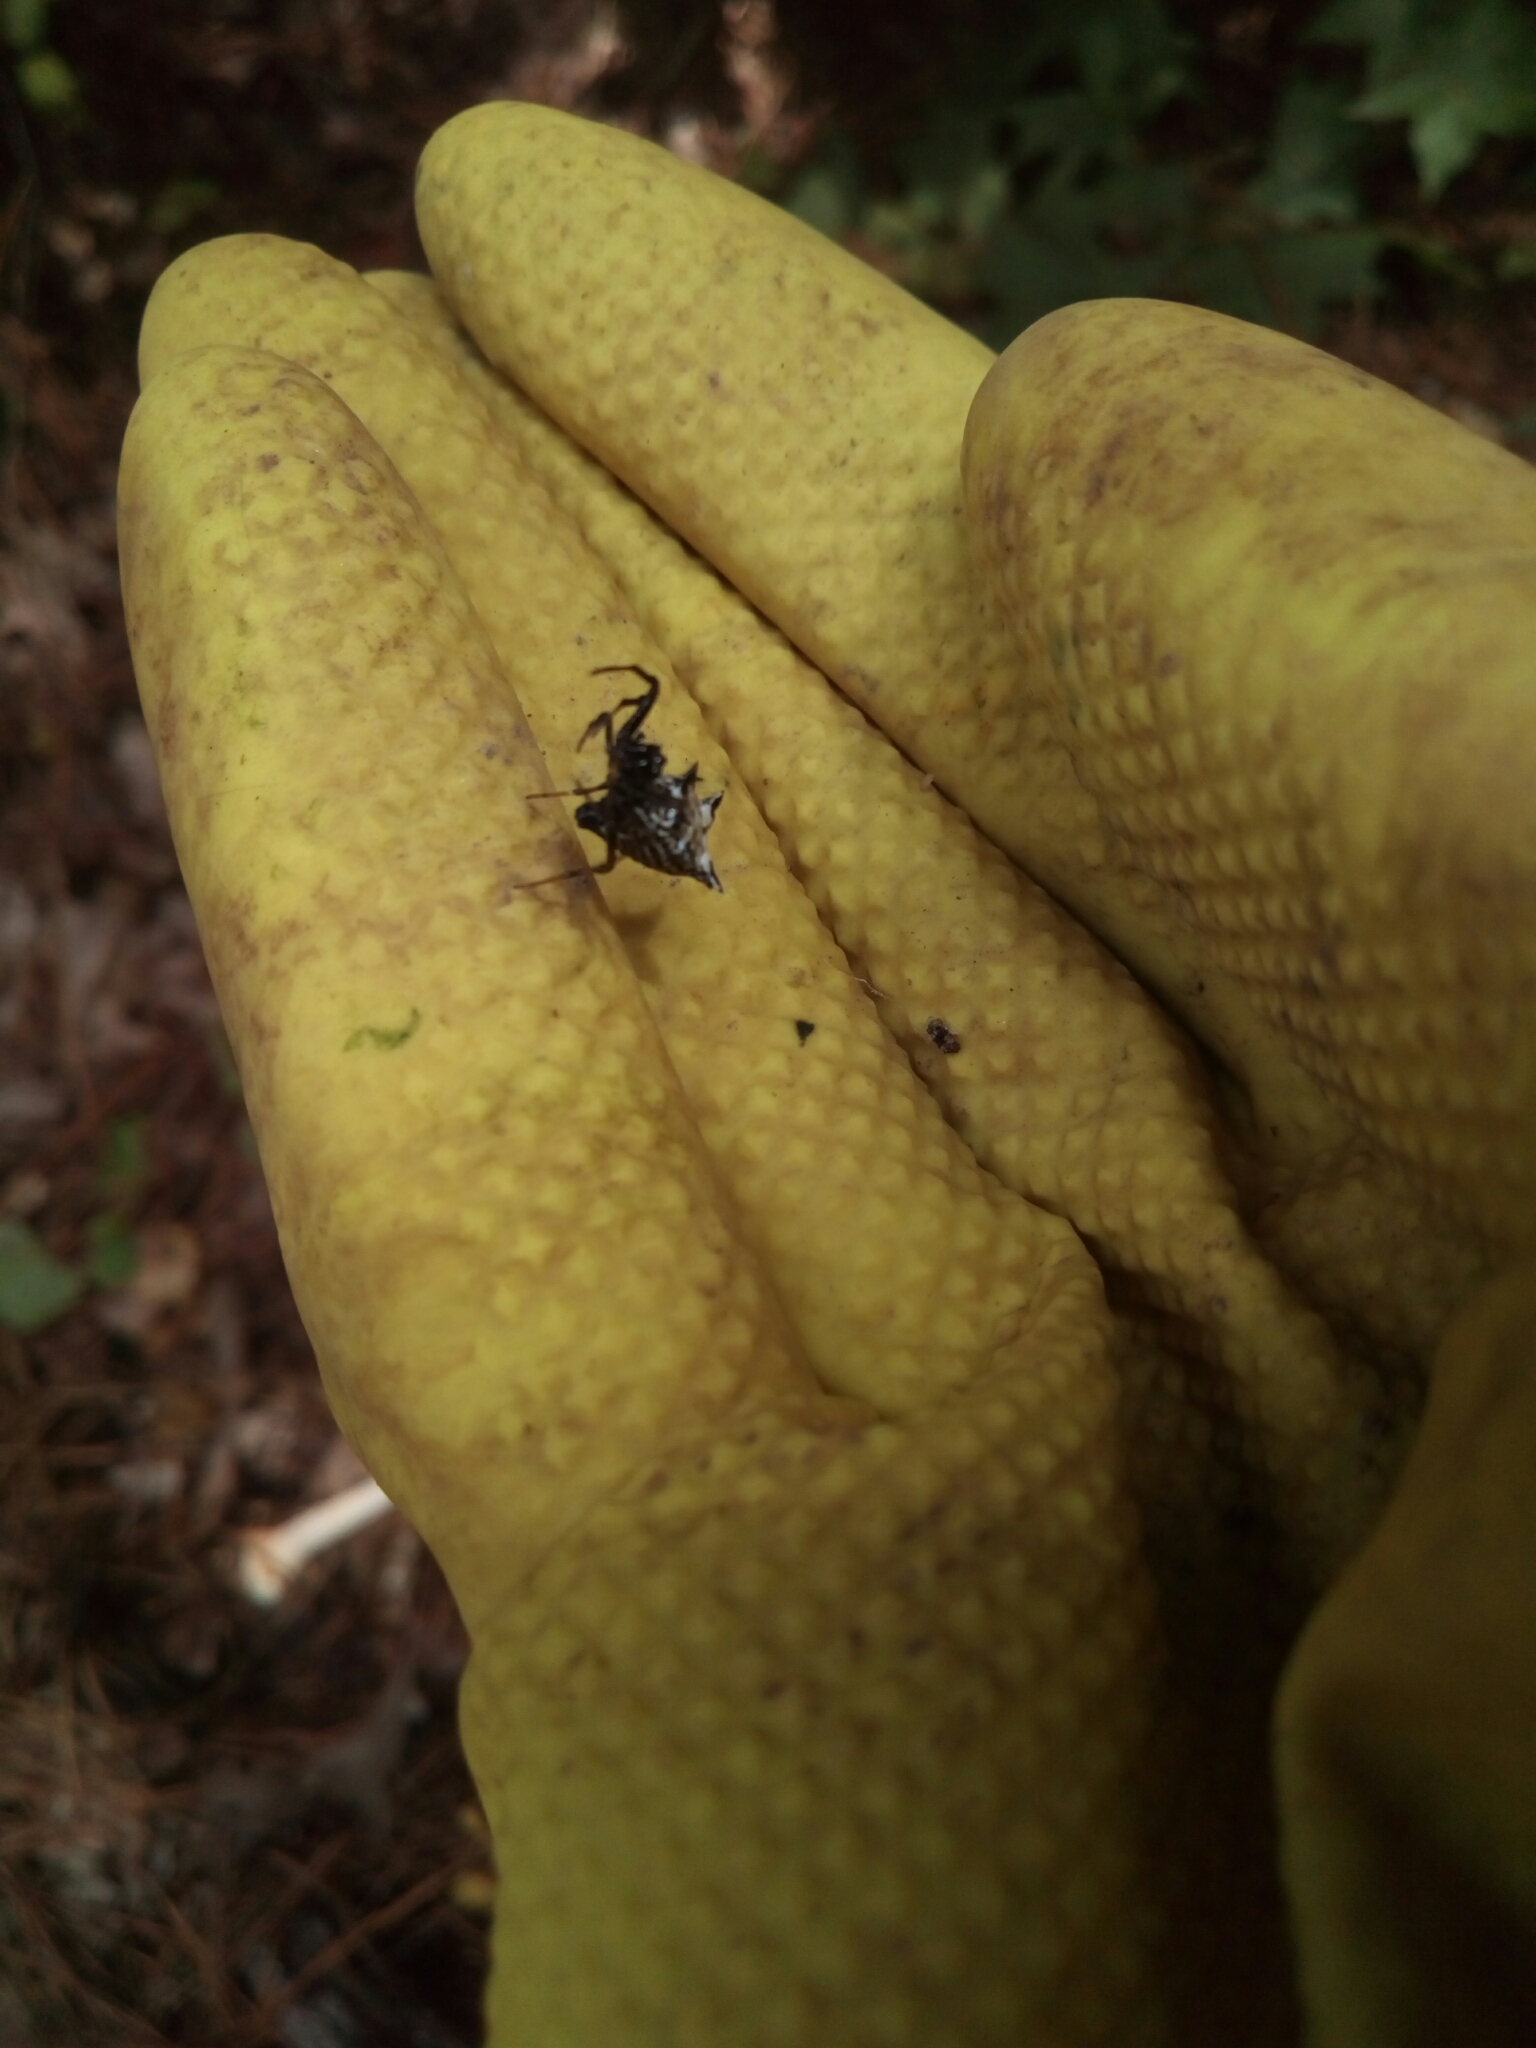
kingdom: Animalia
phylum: Arthropoda
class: Arachnida
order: Araneae
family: Araneidae
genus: Micrathena
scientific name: Micrathena gracilis
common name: Orb weavers
